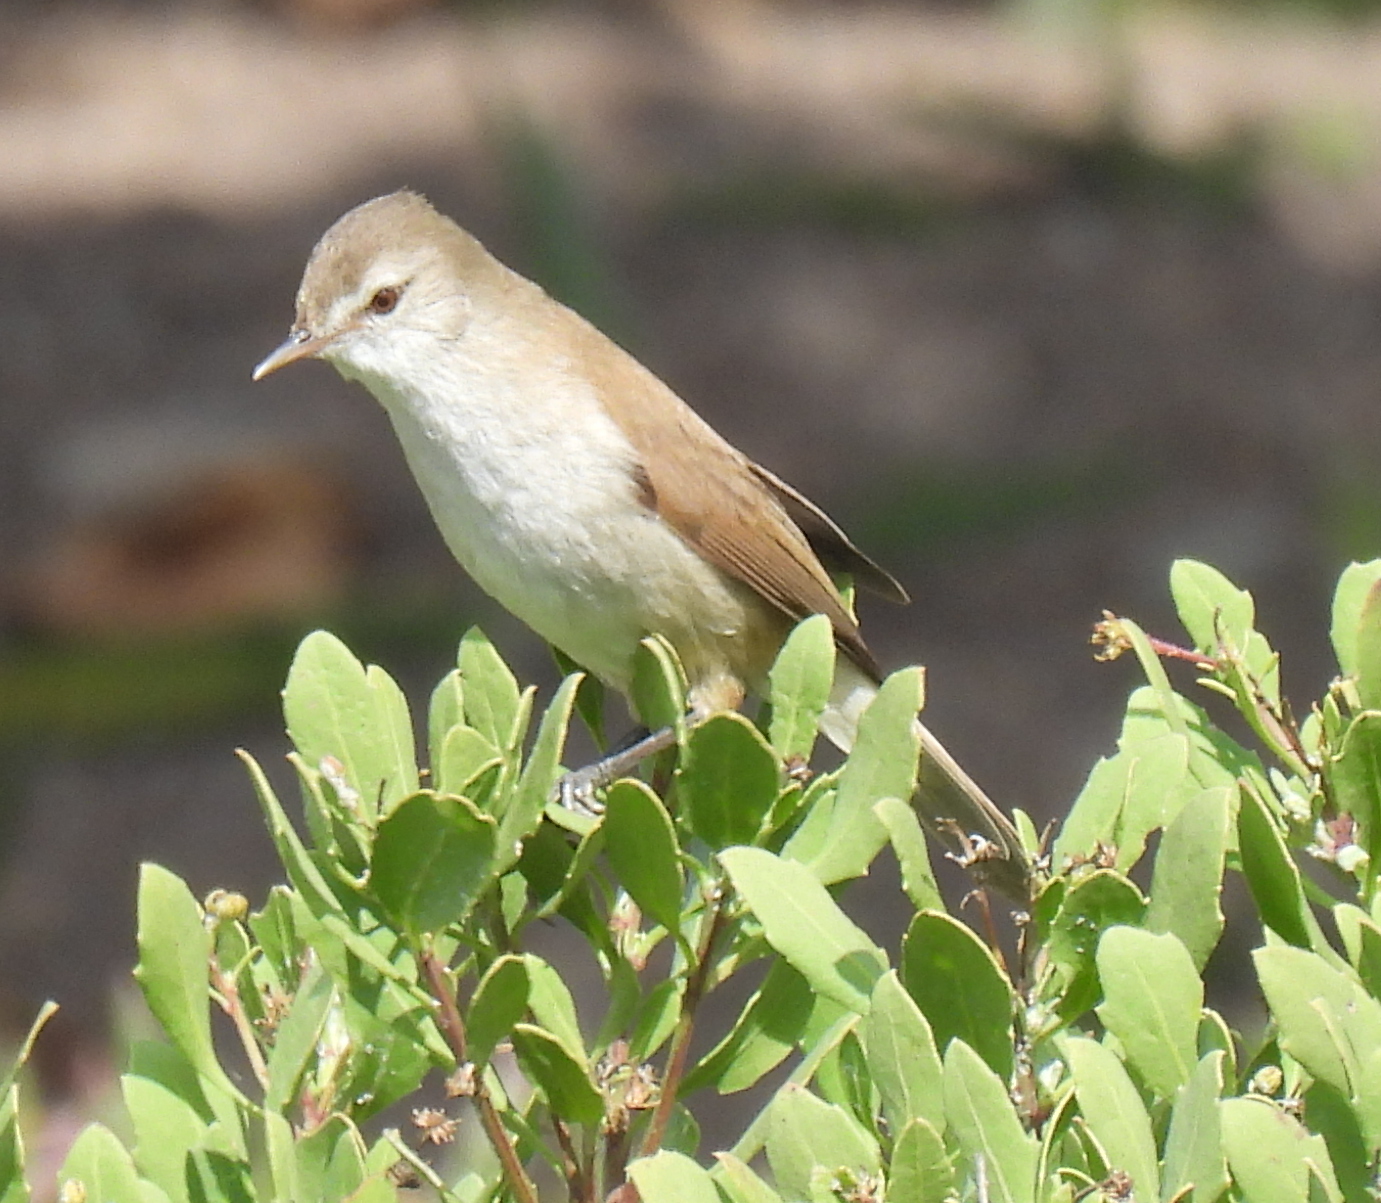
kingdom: Animalia
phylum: Chordata
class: Aves
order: Passeriformes
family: Acrocephalidae
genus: Acrocephalus
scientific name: Acrocephalus gracilirostris
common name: Lesser swamp warbler
